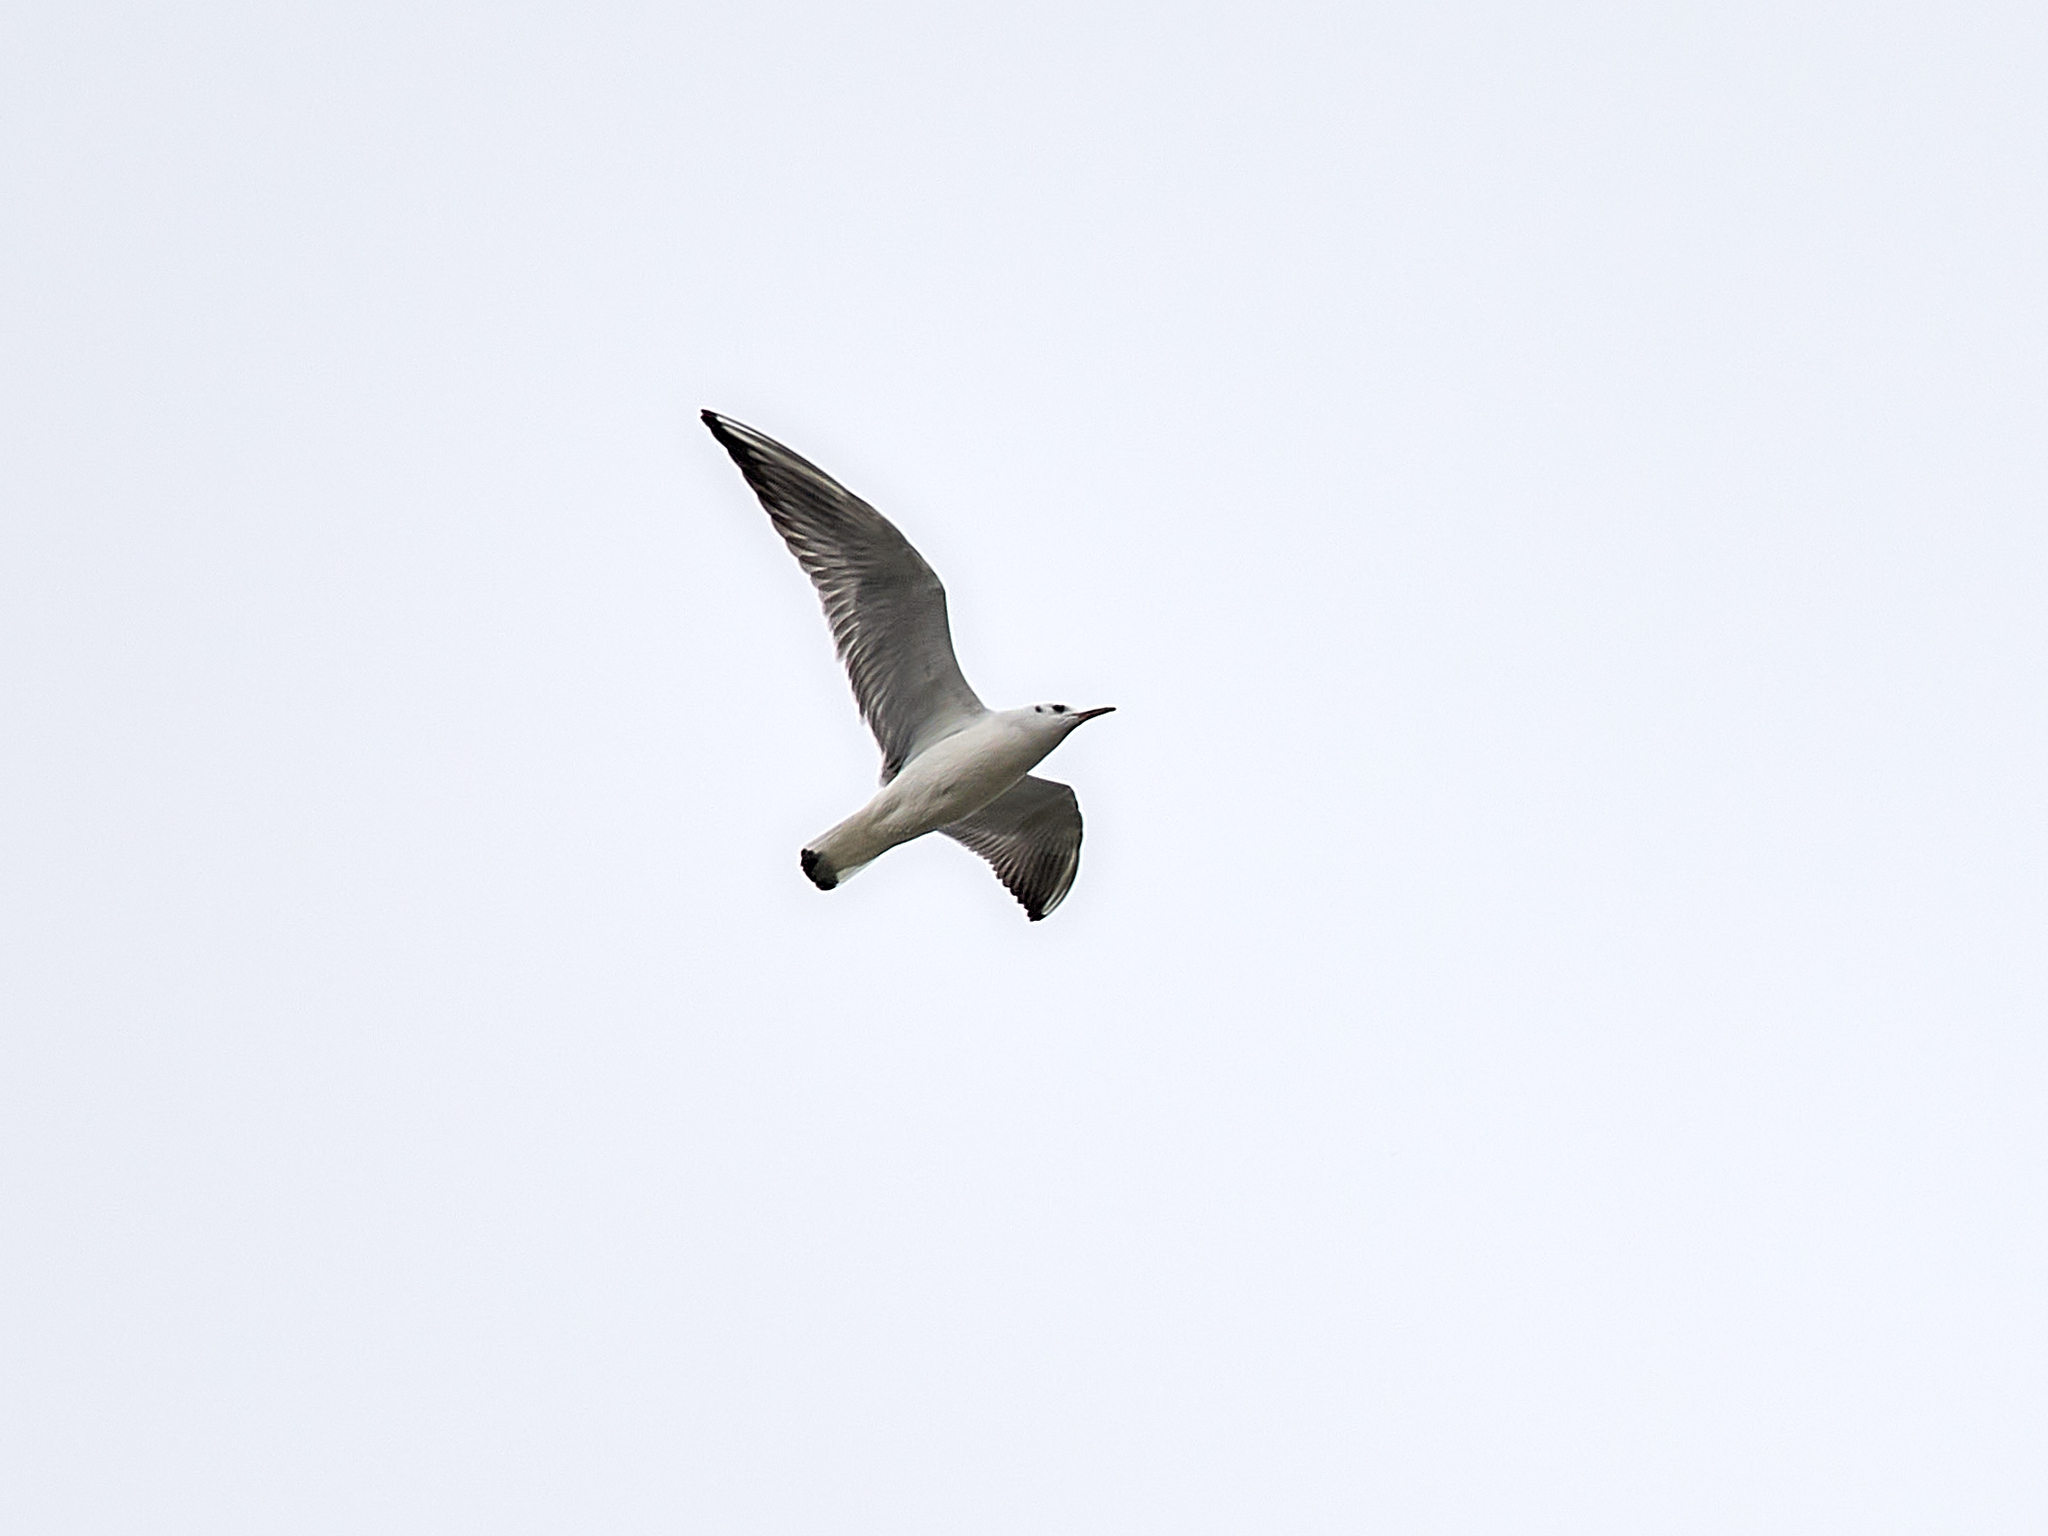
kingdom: Animalia
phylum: Chordata
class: Aves
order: Charadriiformes
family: Laridae
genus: Chroicocephalus
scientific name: Chroicocephalus ridibundus
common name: Black-headed gull
